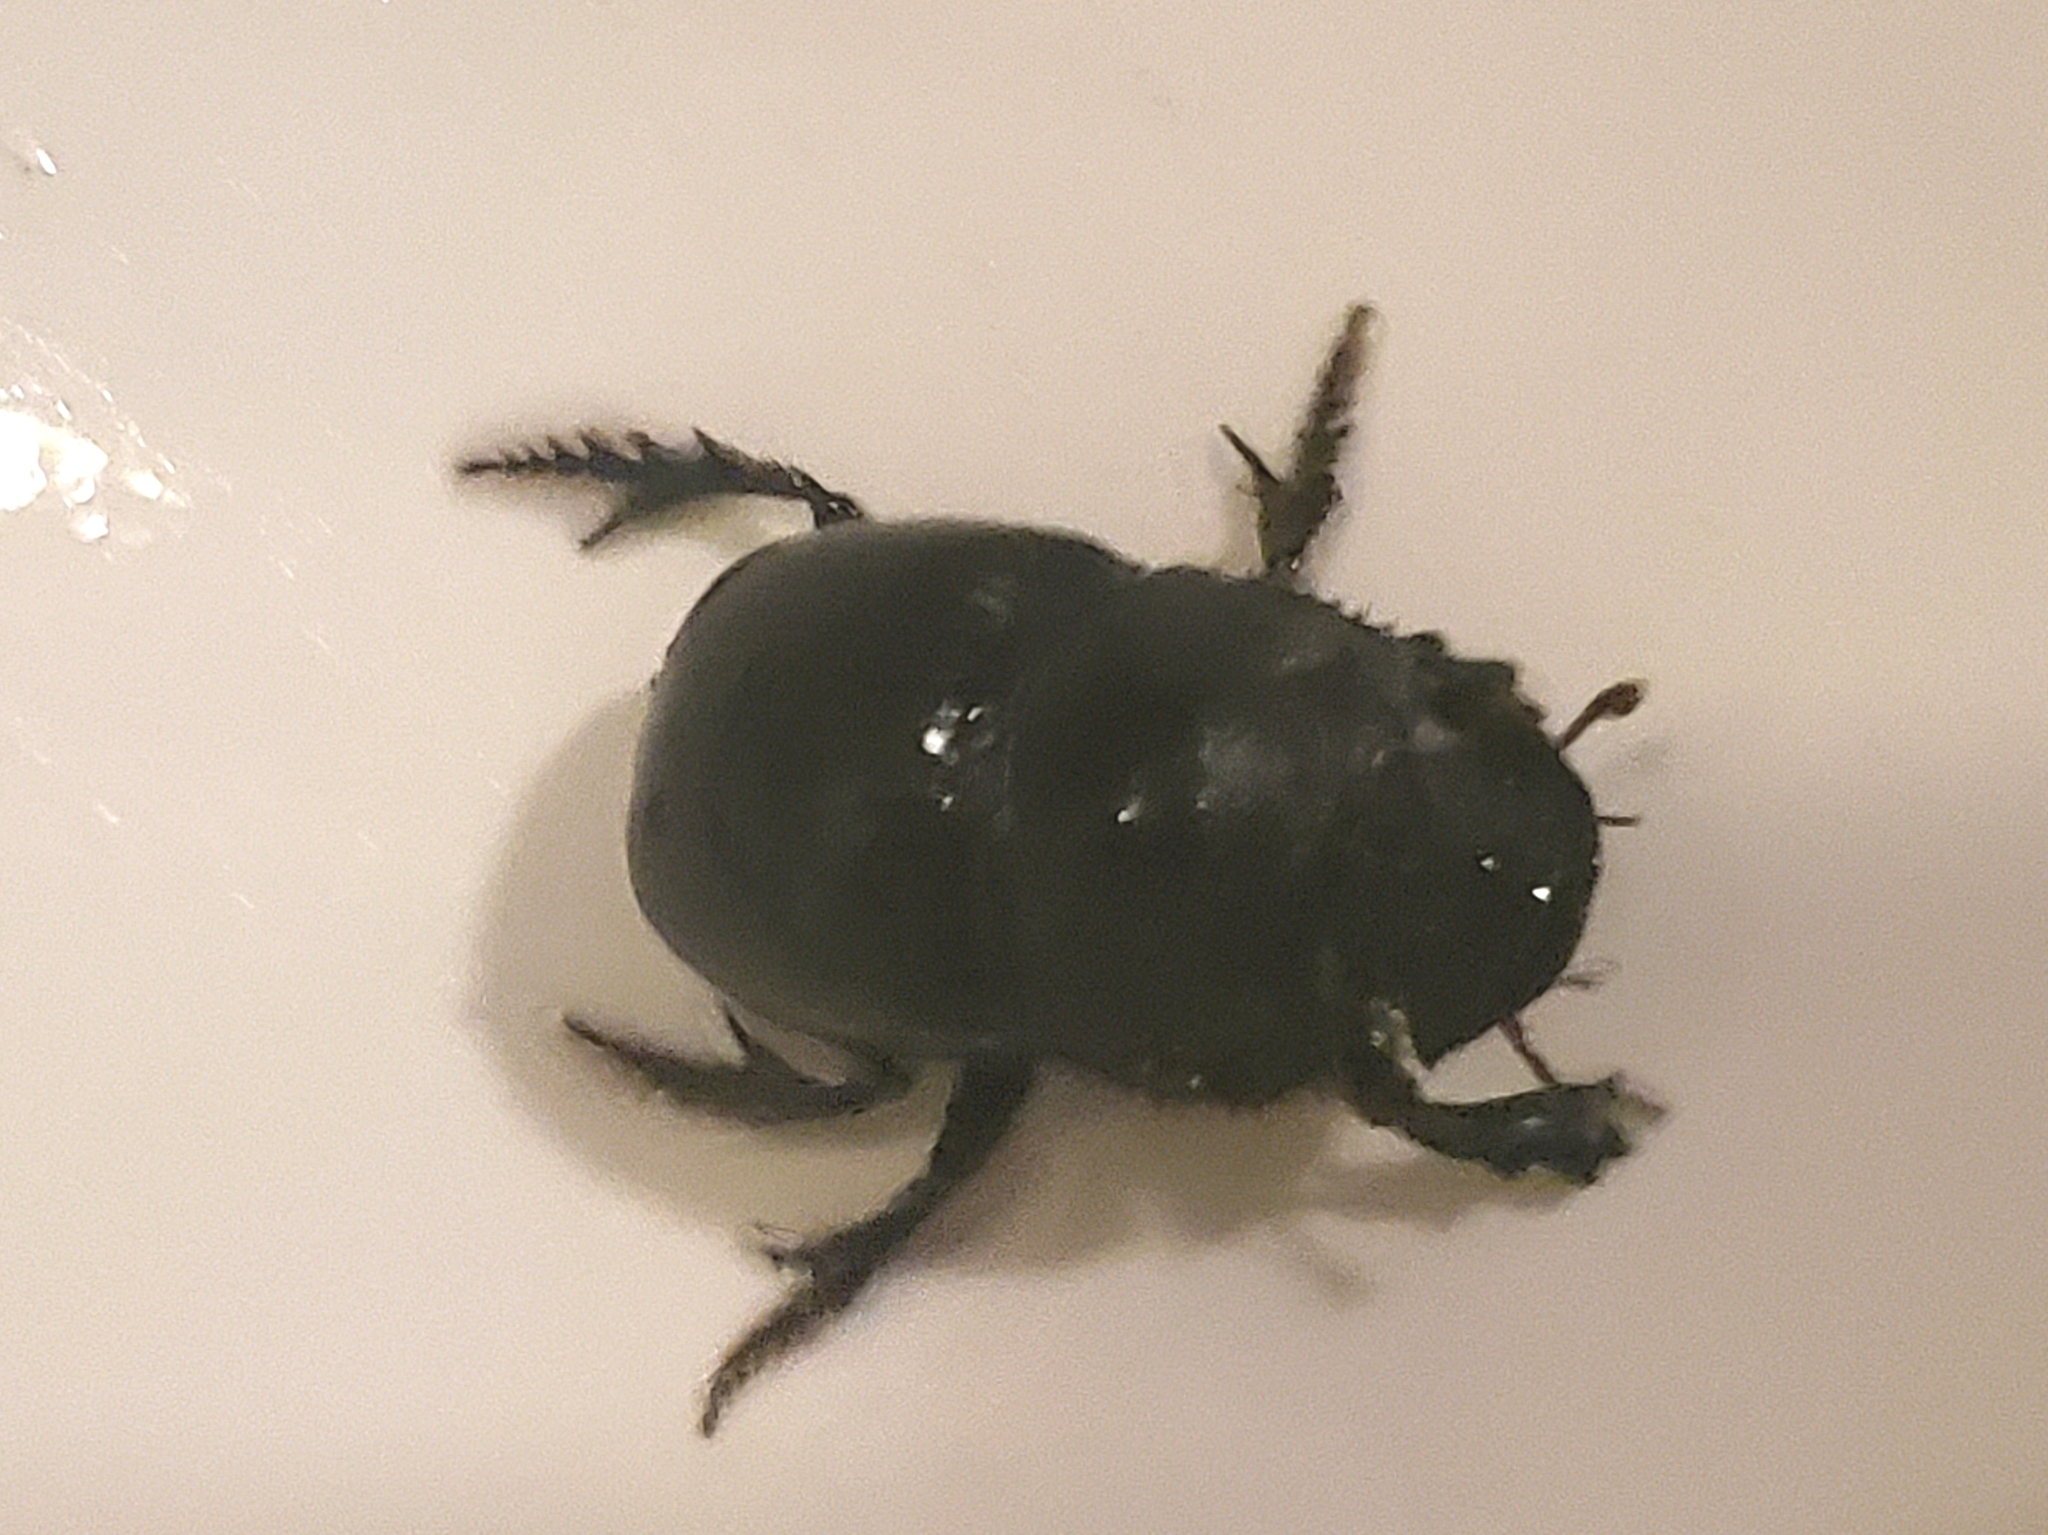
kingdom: Animalia
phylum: Arthropoda
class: Insecta
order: Coleoptera
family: Scarabaeidae
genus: Copris
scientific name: Copris elphenor
